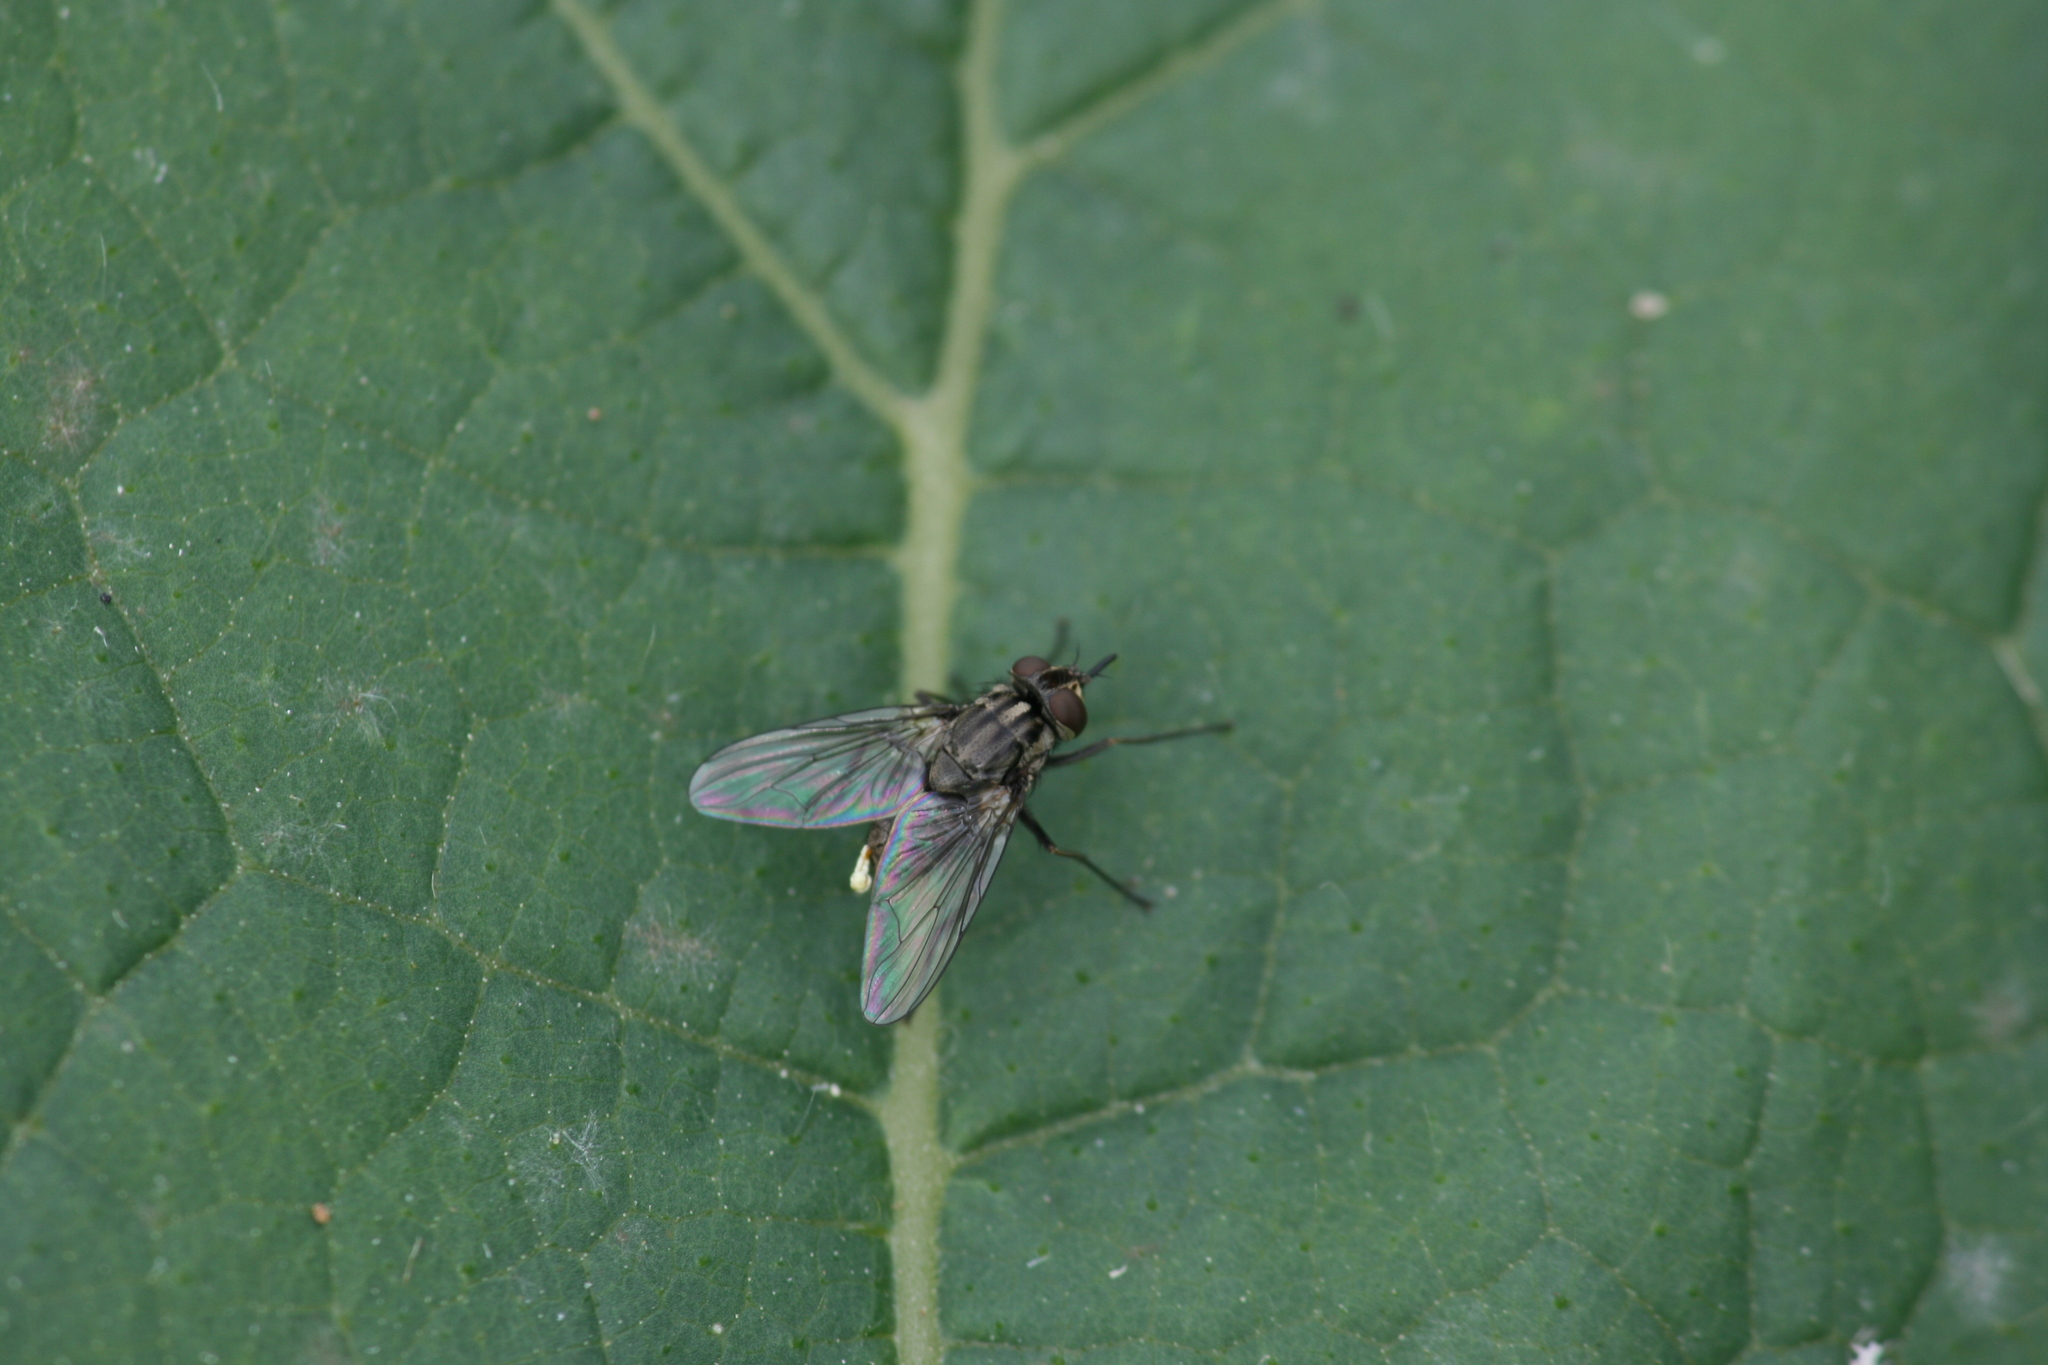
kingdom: Animalia
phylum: Arthropoda
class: Insecta
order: Diptera
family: Muscidae
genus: Stomoxys
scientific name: Stomoxys calcitrans
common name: Stable fly
